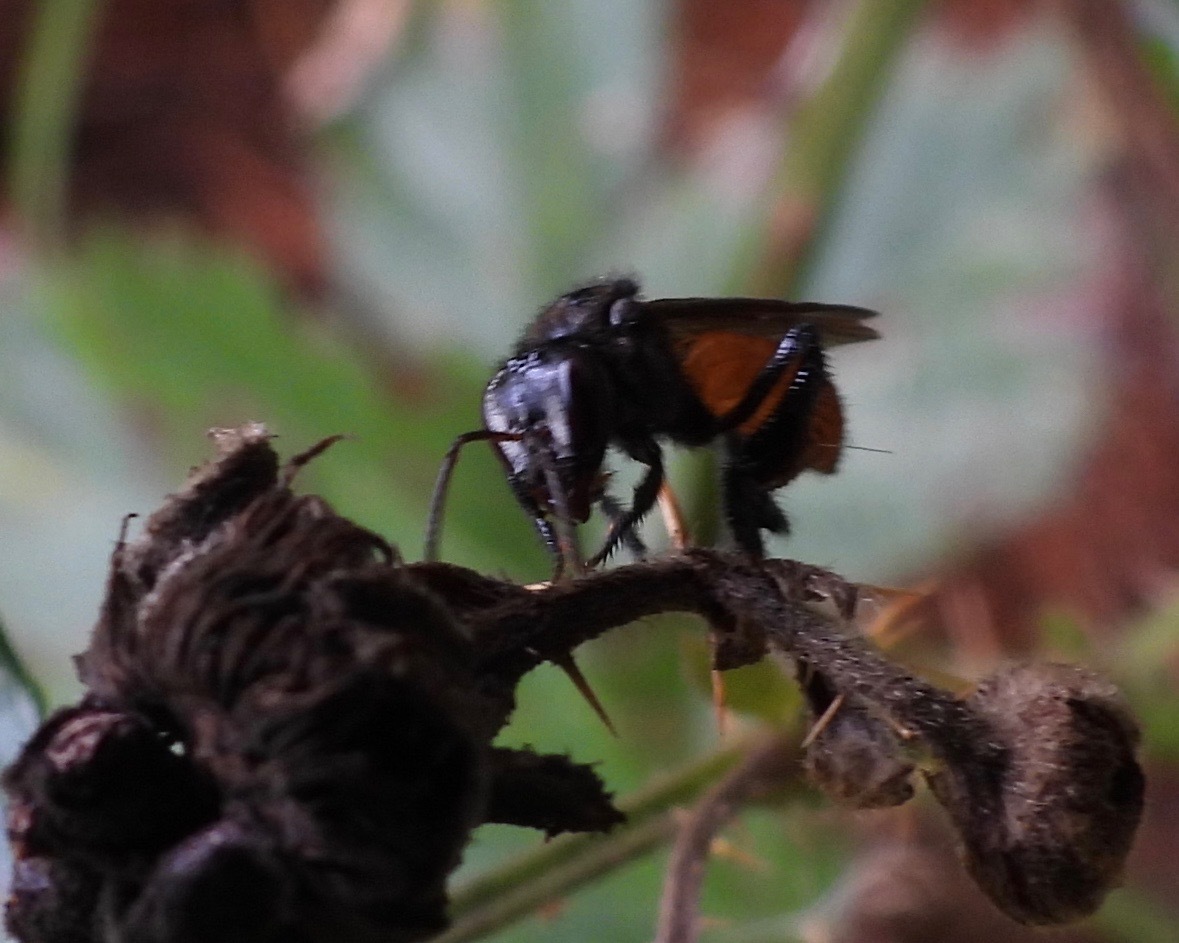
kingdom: Animalia
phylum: Arthropoda
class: Insecta
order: Hymenoptera
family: Apidae
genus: Trigona
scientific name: Trigona fulviventris
